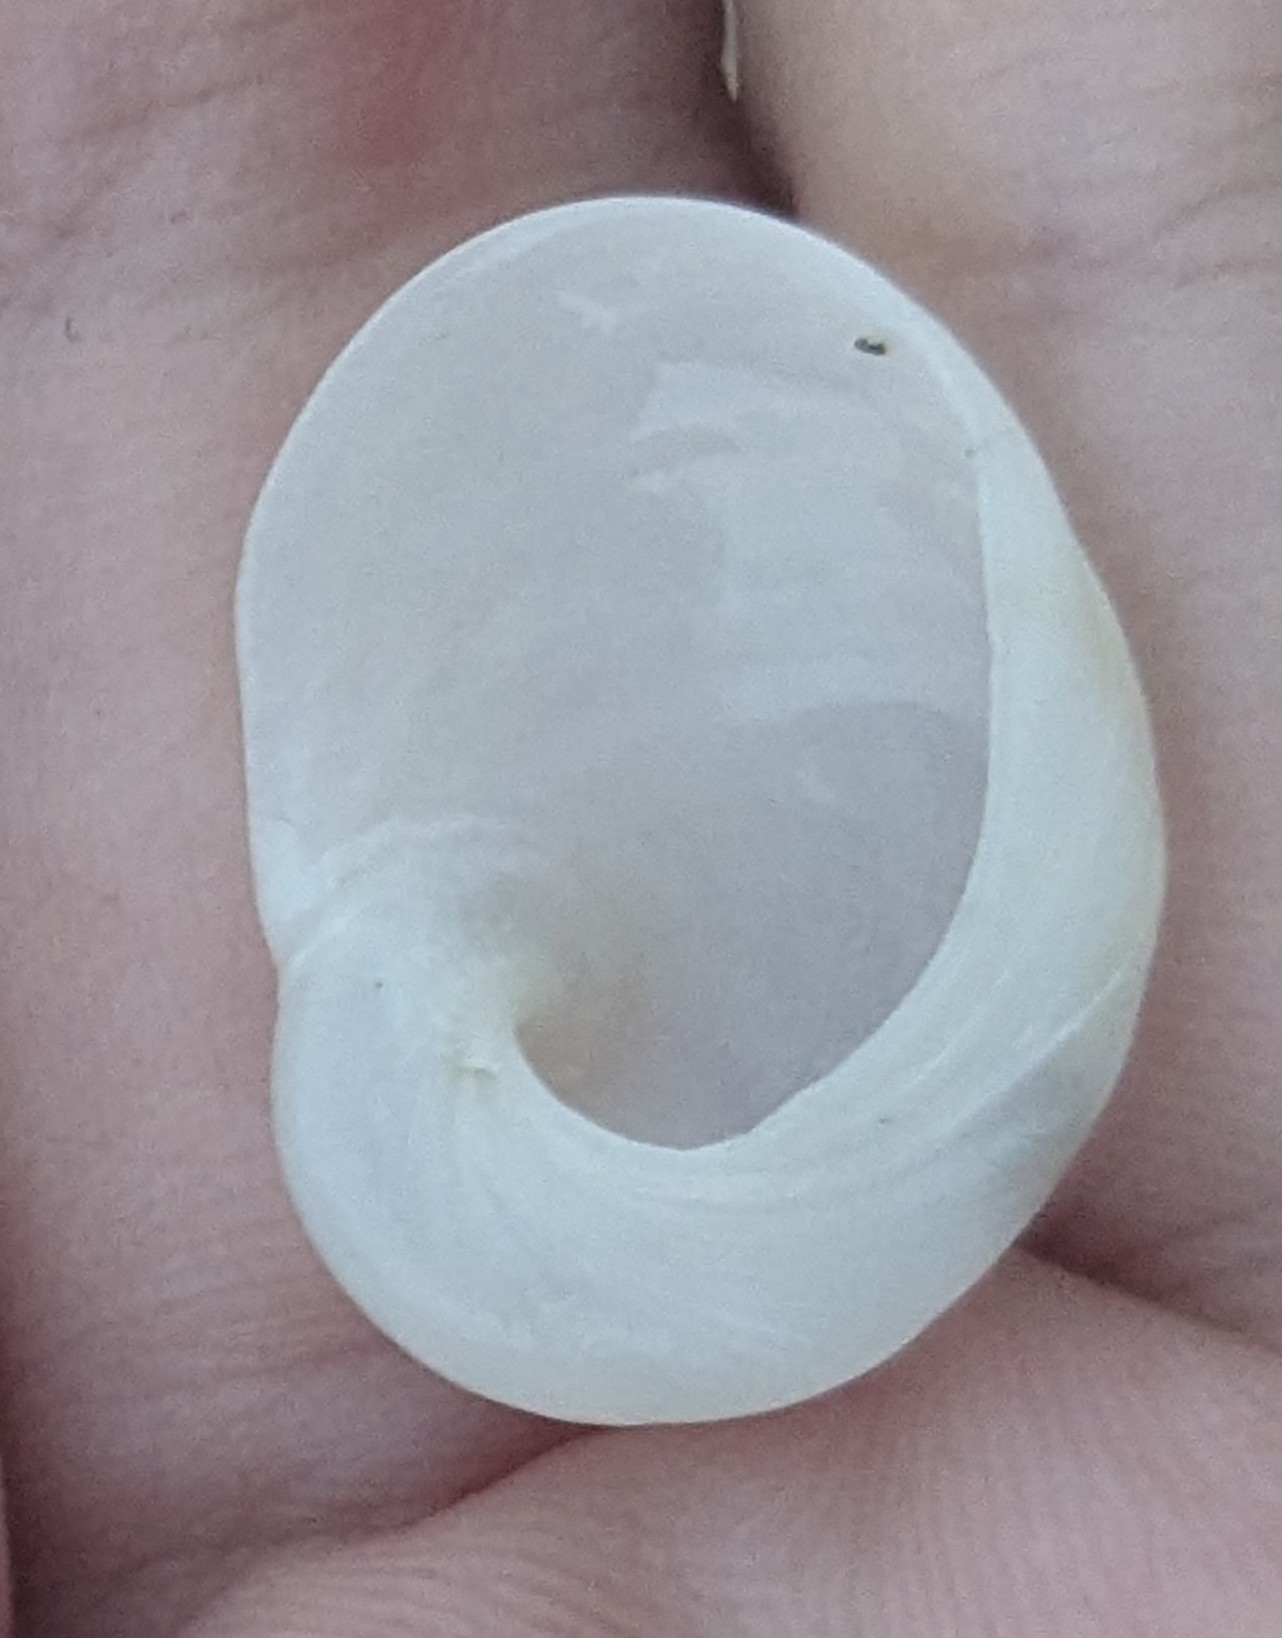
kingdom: Animalia
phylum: Mollusca
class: Gastropoda
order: Littorinimorpha
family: Naticidae
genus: Sinum
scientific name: Sinum perspectivum
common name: White baby ear
